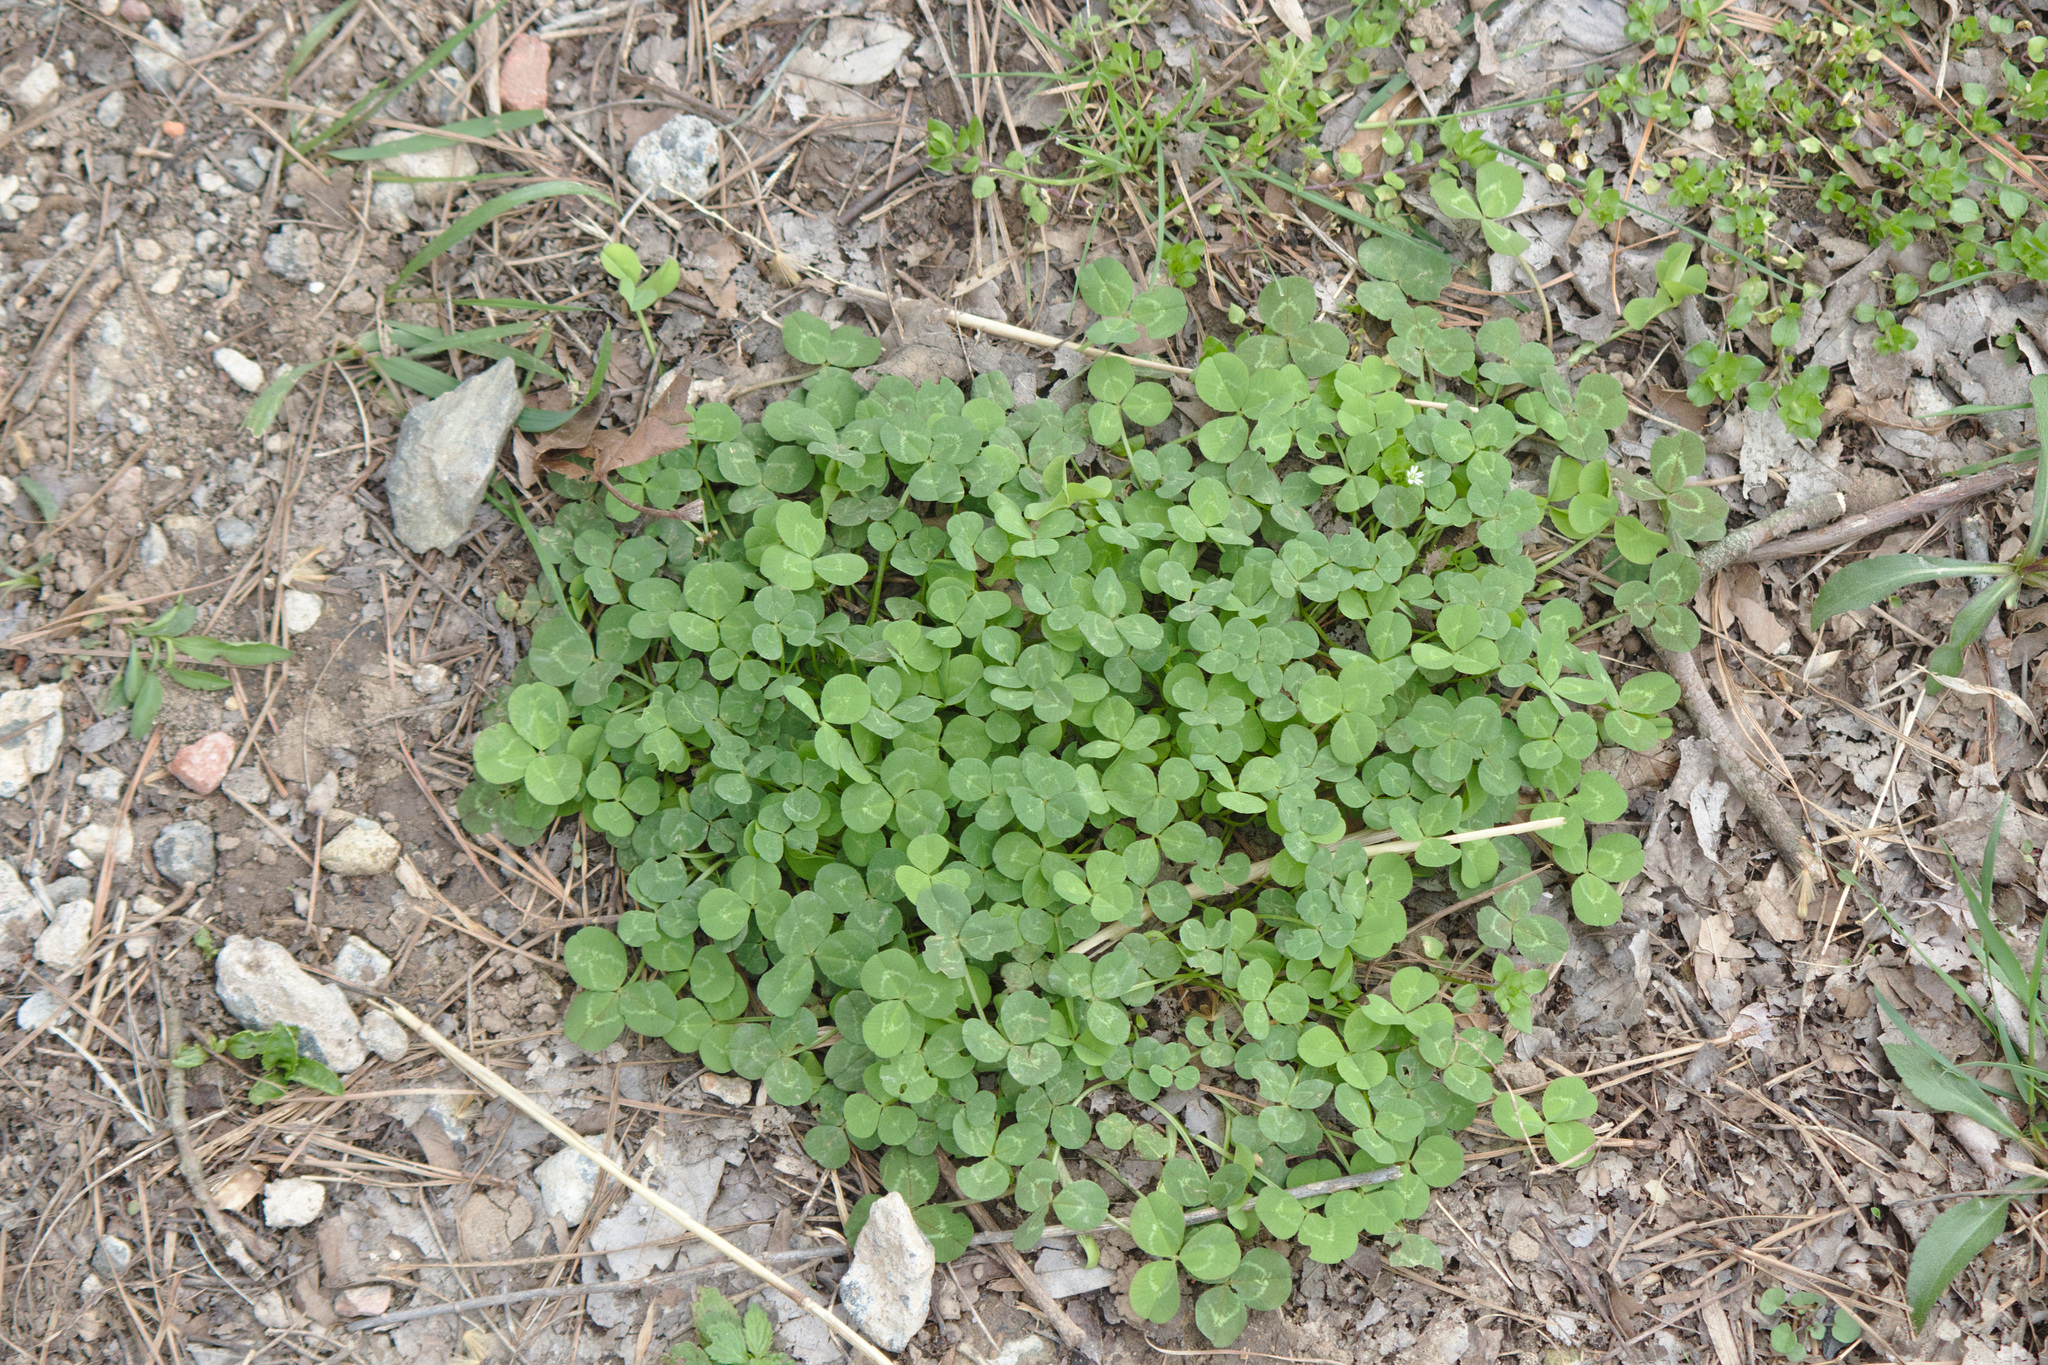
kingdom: Plantae
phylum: Tracheophyta
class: Magnoliopsida
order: Fabales
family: Fabaceae
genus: Trifolium
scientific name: Trifolium repens
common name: White clover
